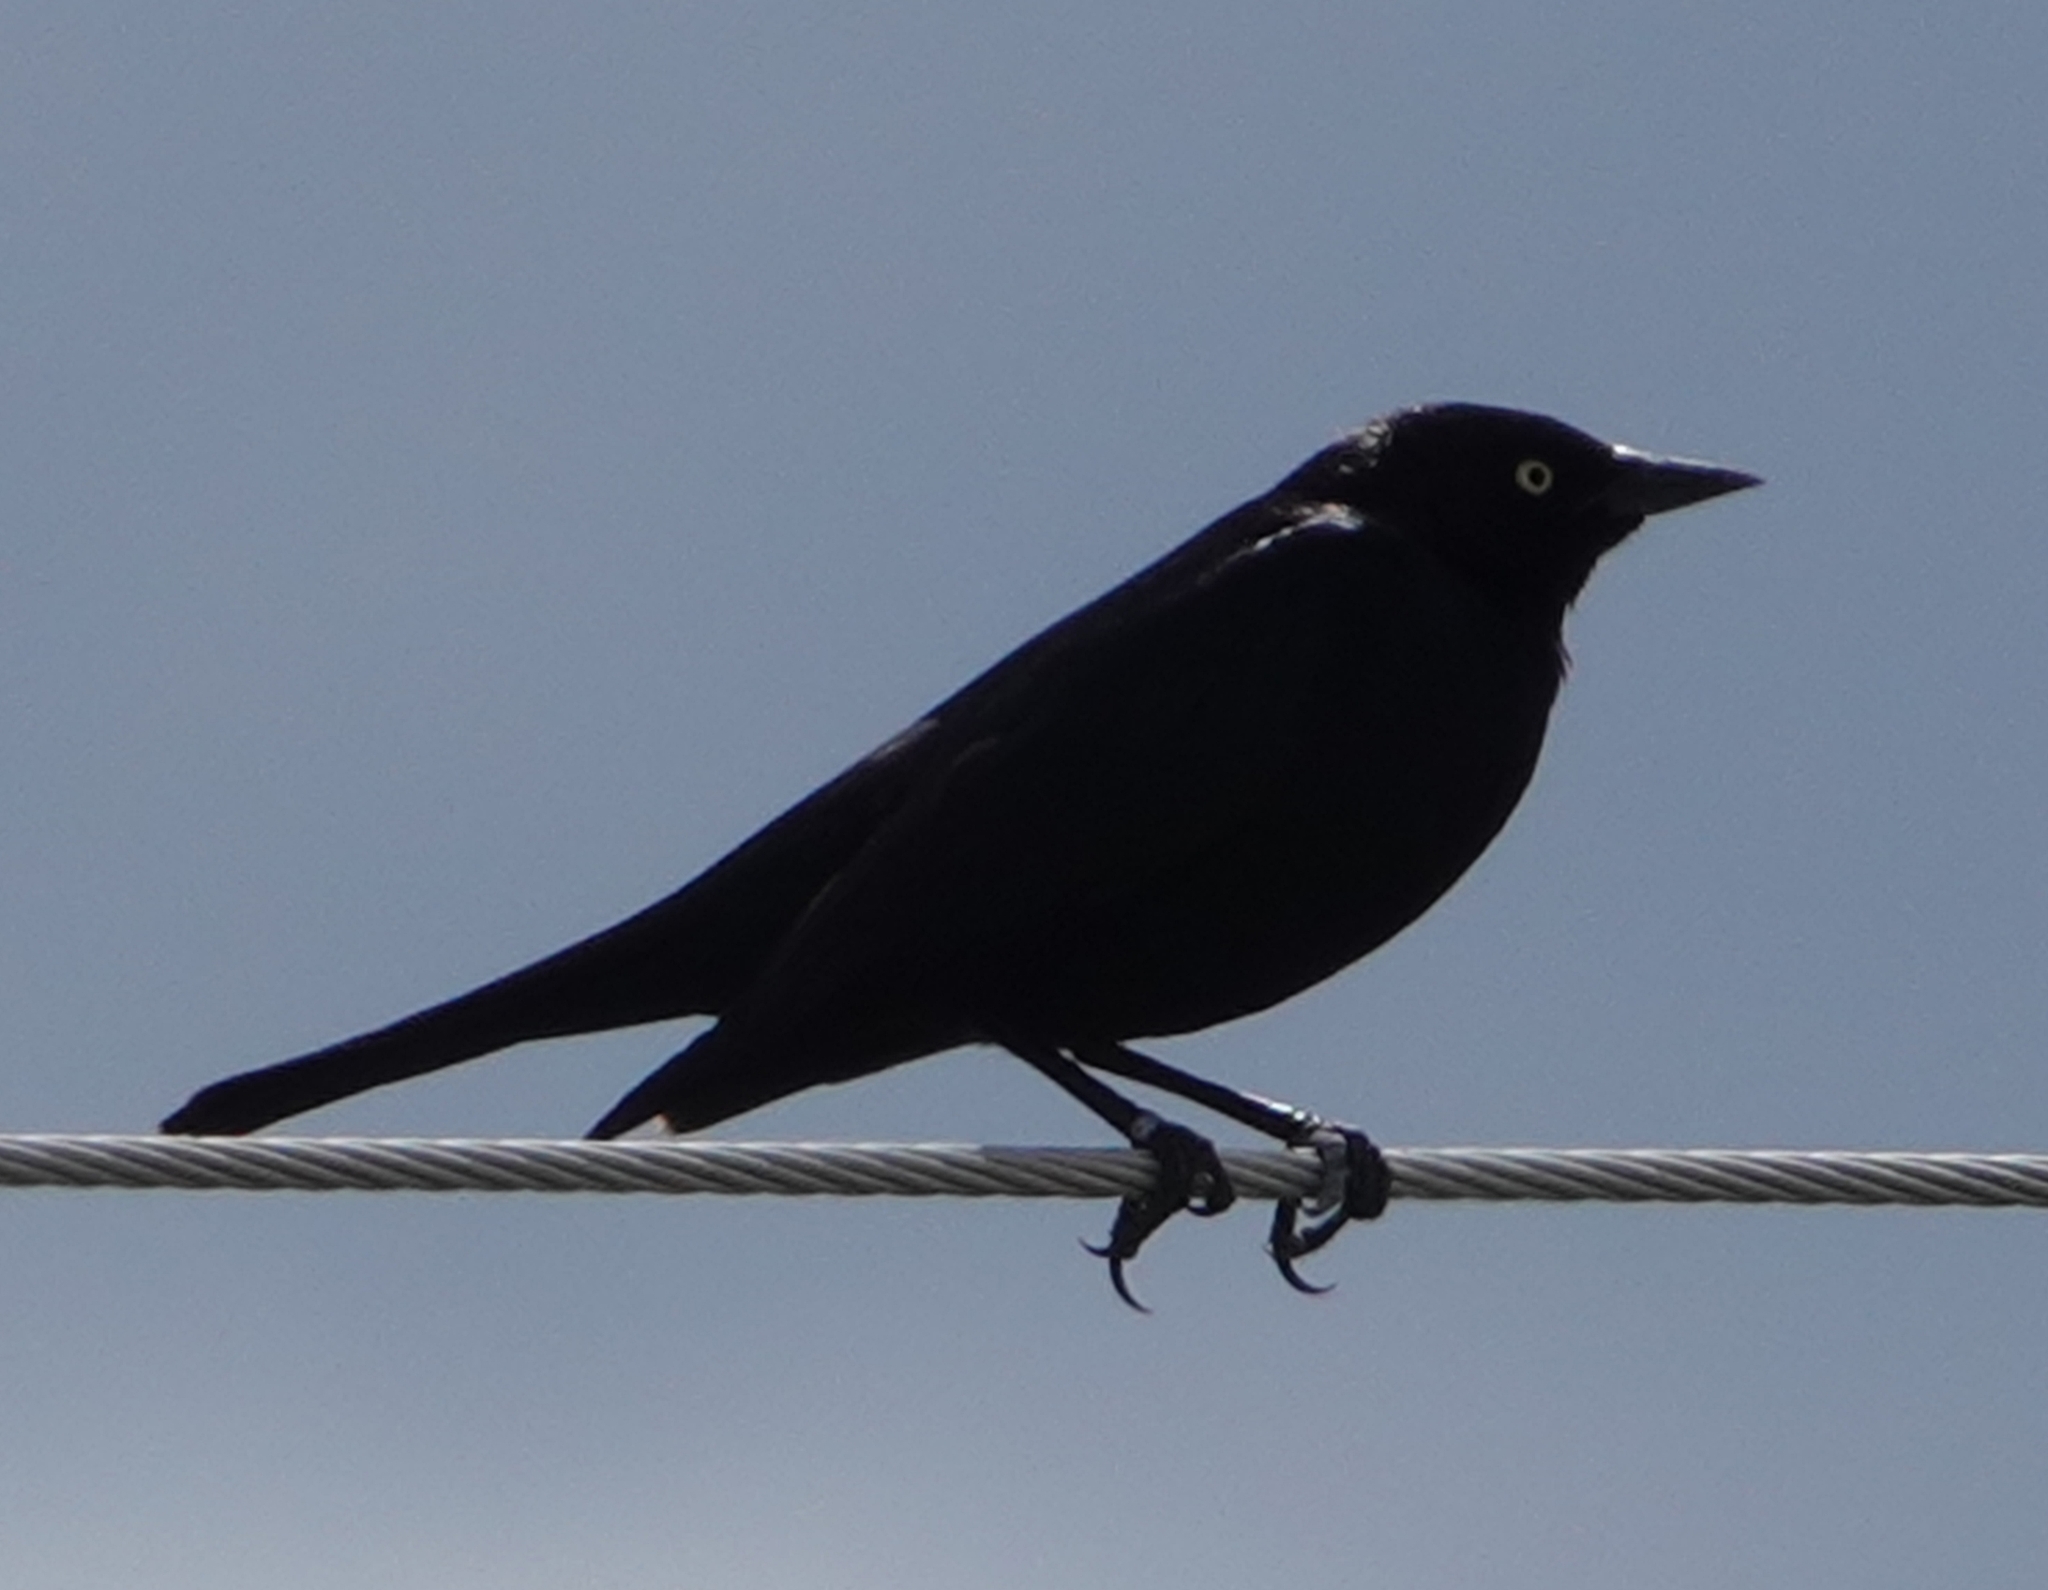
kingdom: Animalia
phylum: Chordata
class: Aves
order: Passeriformes
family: Icteridae
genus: Euphagus
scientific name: Euphagus cyanocephalus
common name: Brewer's blackbird
